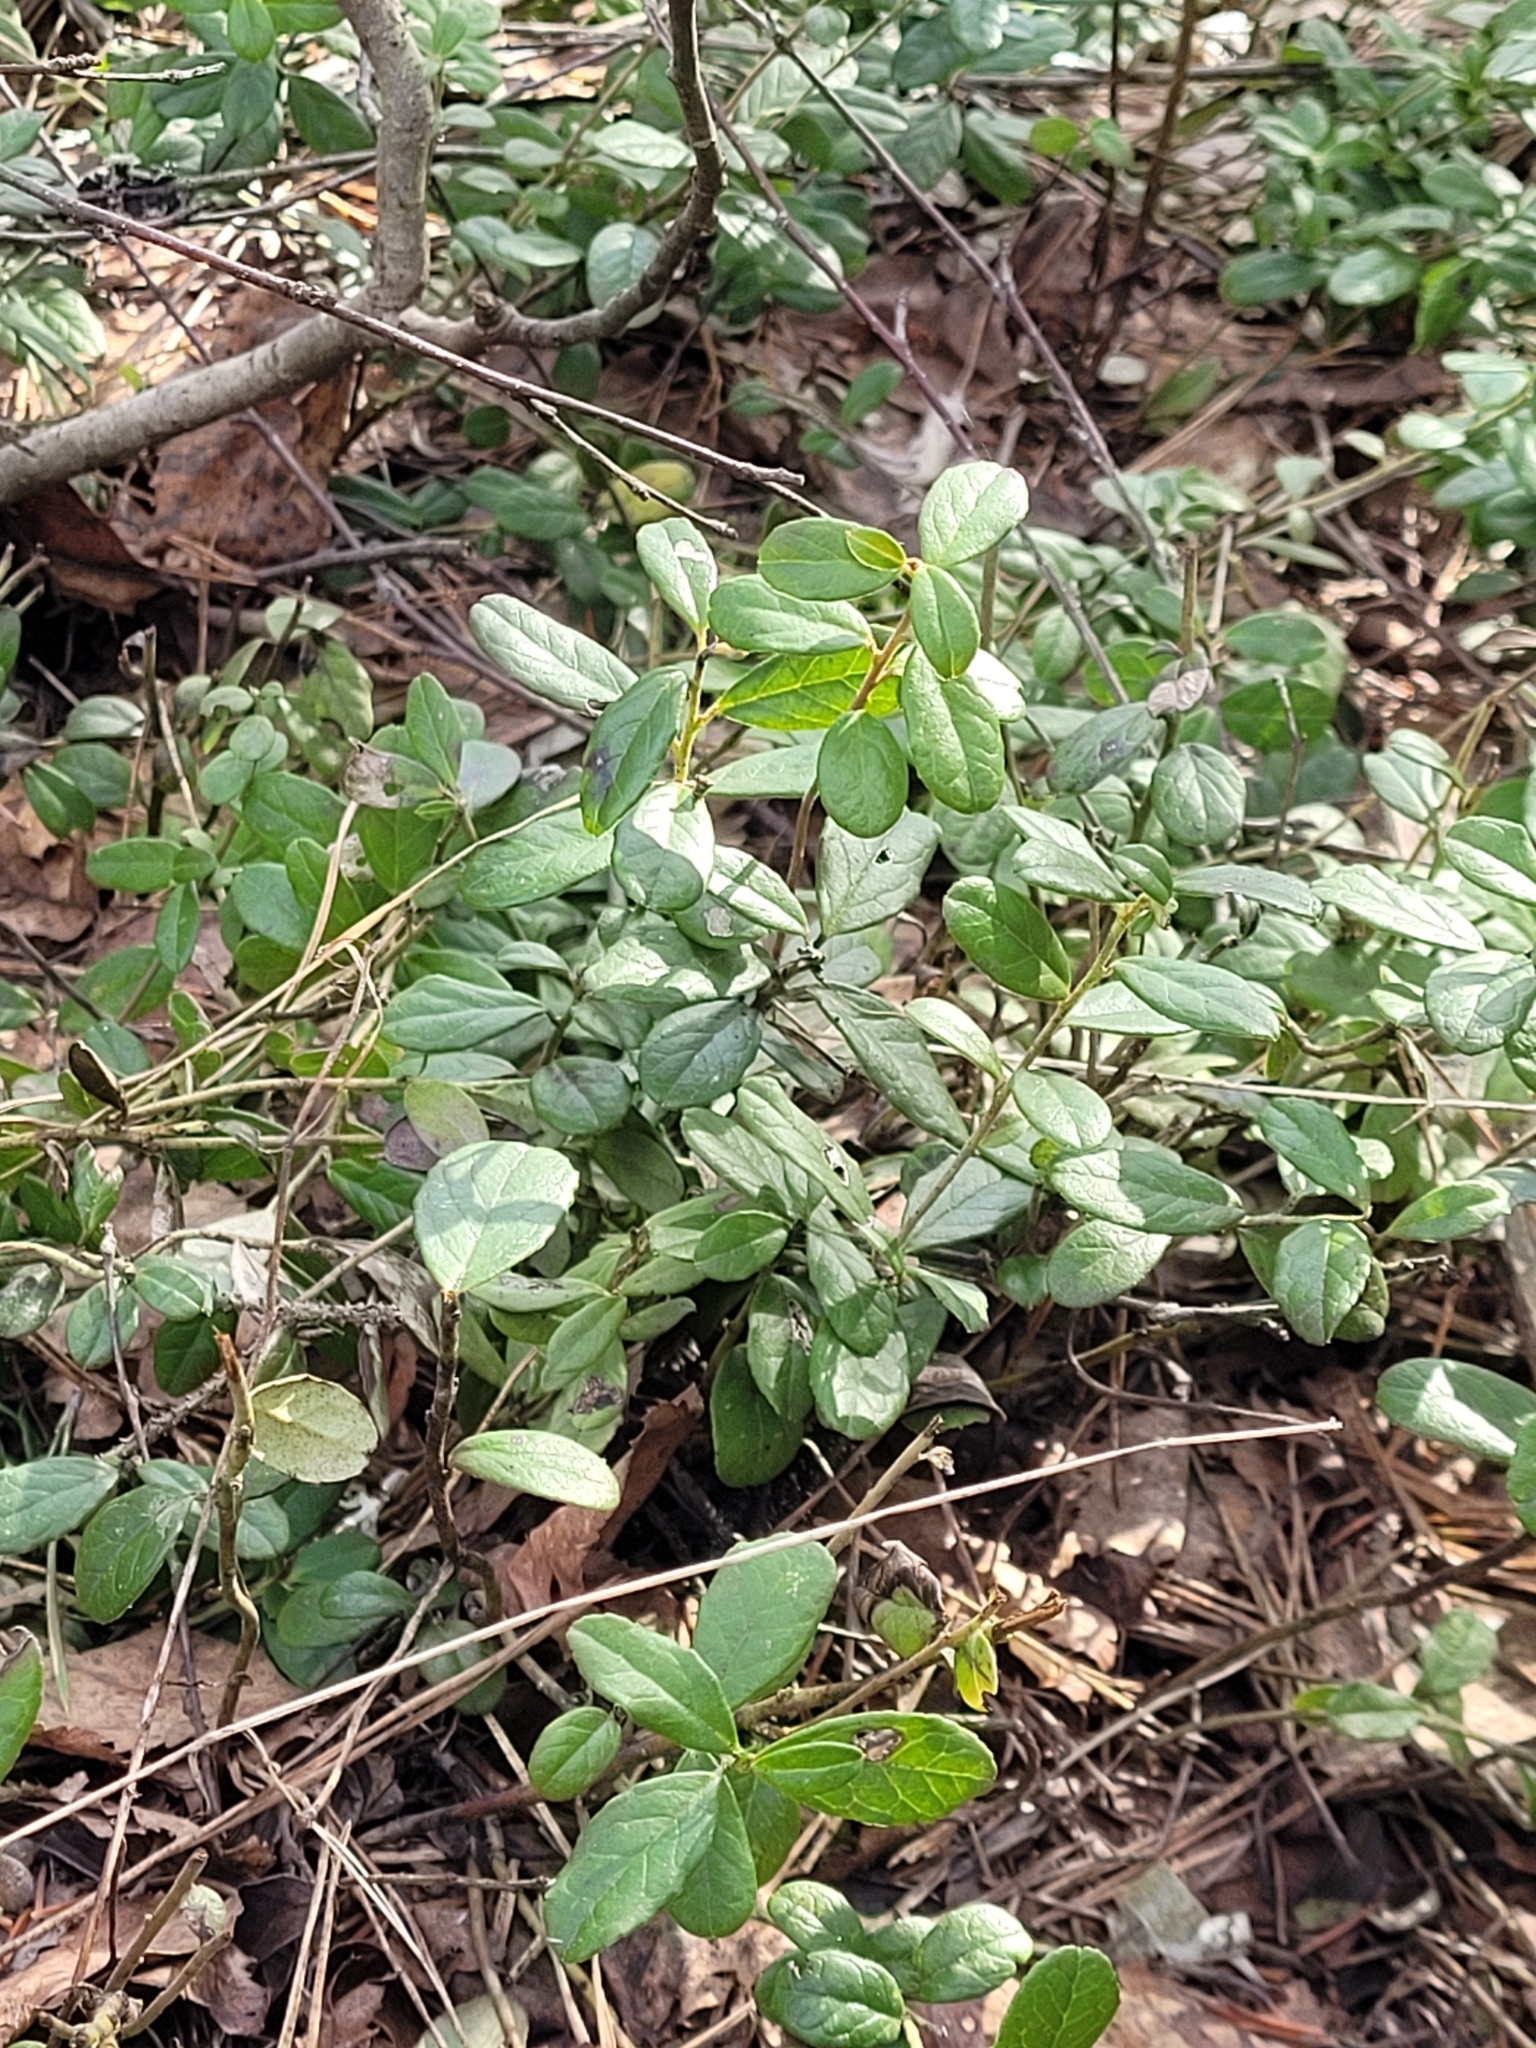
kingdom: Plantae
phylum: Tracheophyta
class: Magnoliopsida
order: Ericales
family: Ericaceae
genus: Vaccinium
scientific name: Vaccinium vitis-idaea
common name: Cowberry
